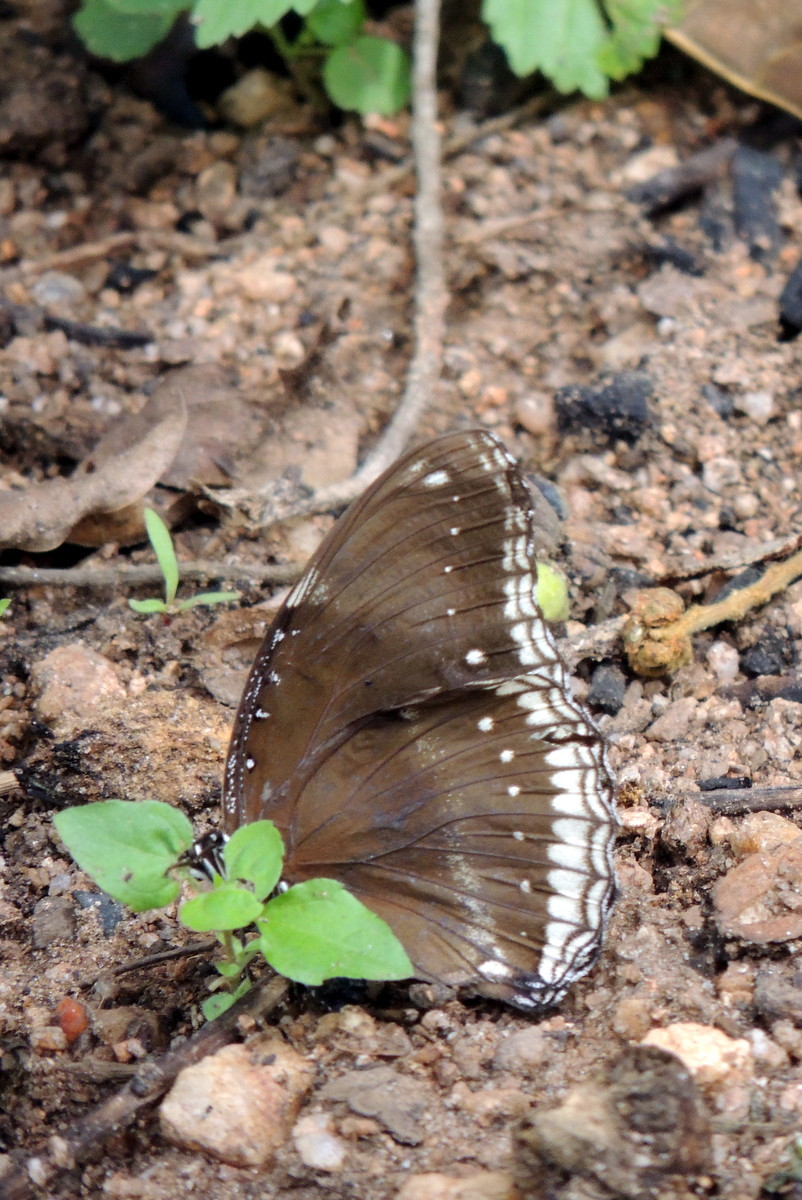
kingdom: Animalia
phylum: Arthropoda
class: Insecta
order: Lepidoptera
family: Nymphalidae
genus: Hypolimnas
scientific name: Hypolimnas bolina
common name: Great eggfly
